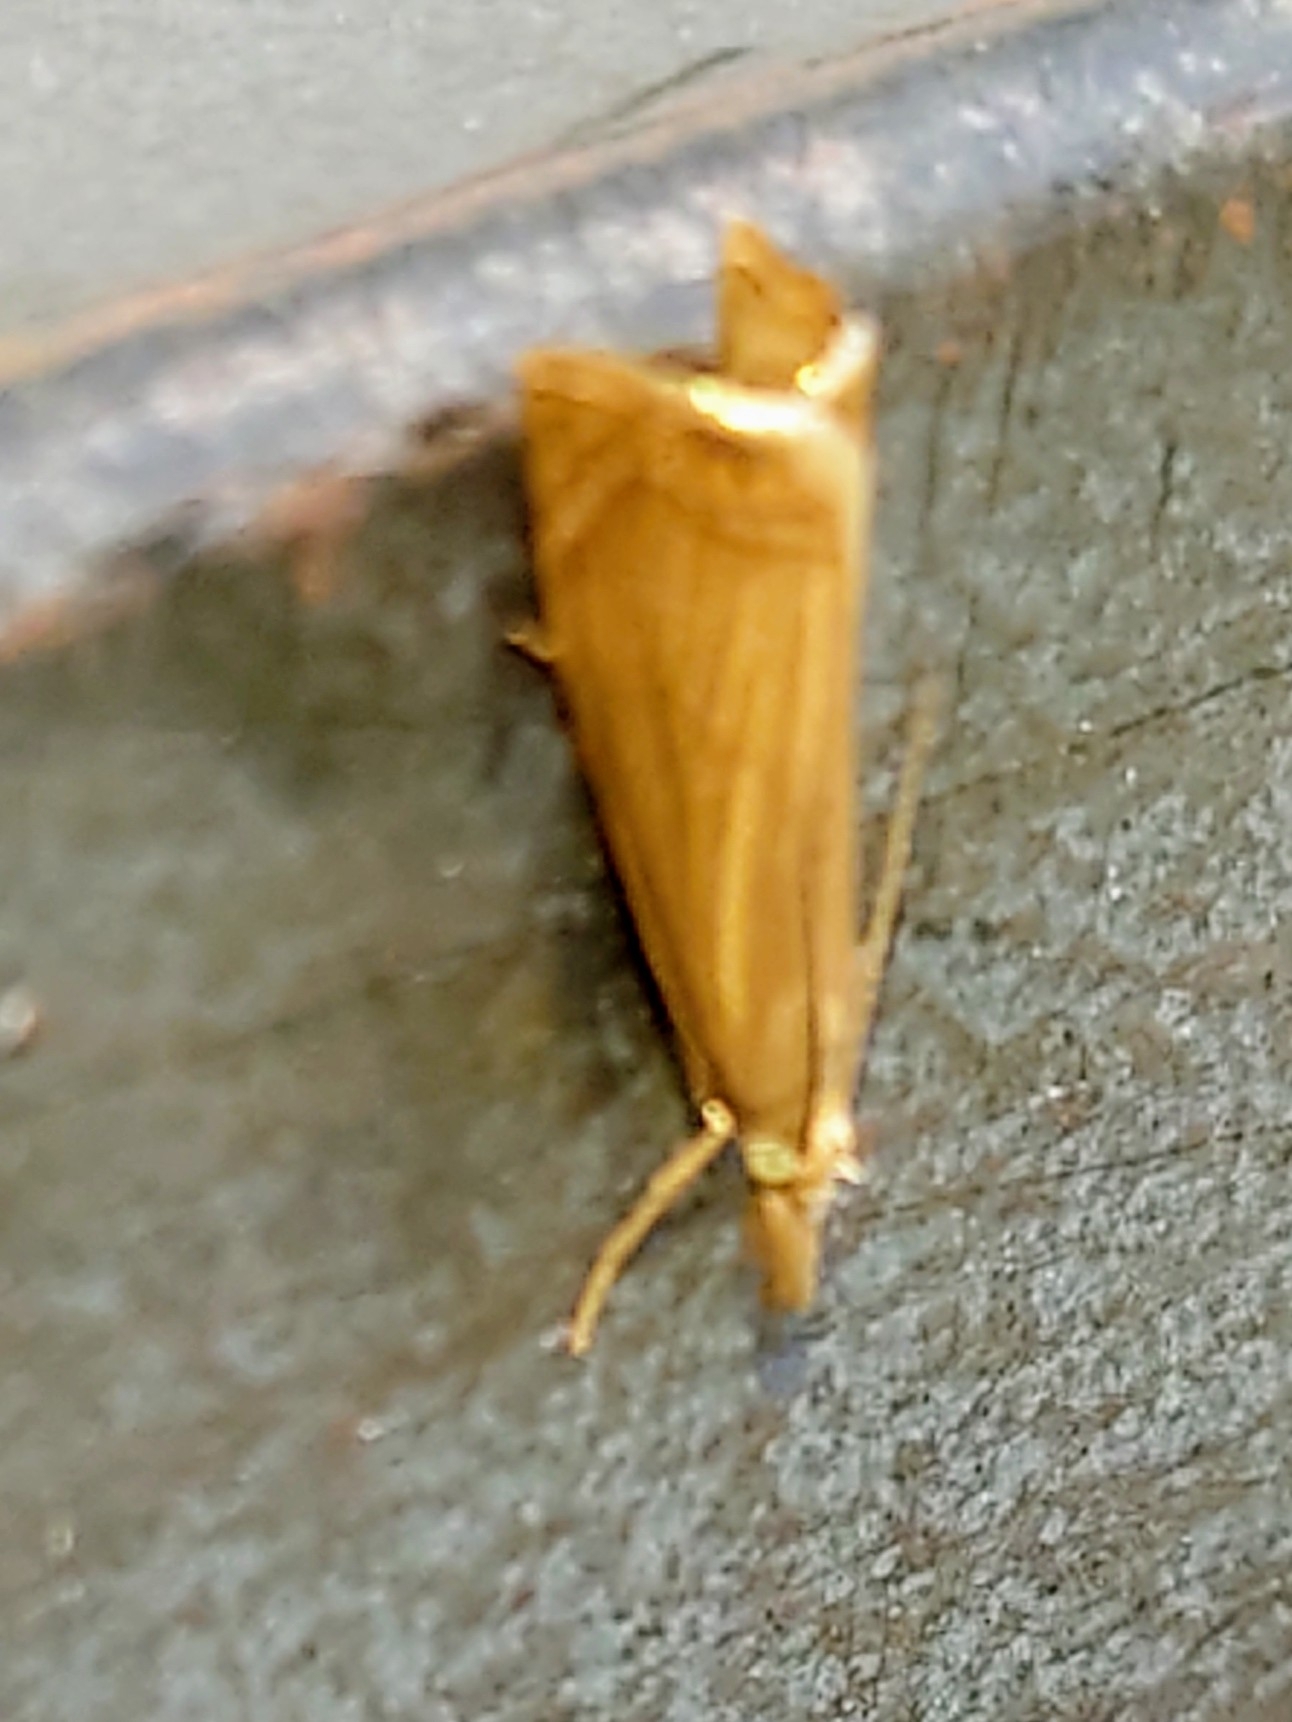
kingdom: Animalia
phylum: Arthropoda
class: Insecta
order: Lepidoptera
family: Crambidae
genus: Chrysoteuchia
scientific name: Chrysoteuchia culmella
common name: Garden grass-veneer
